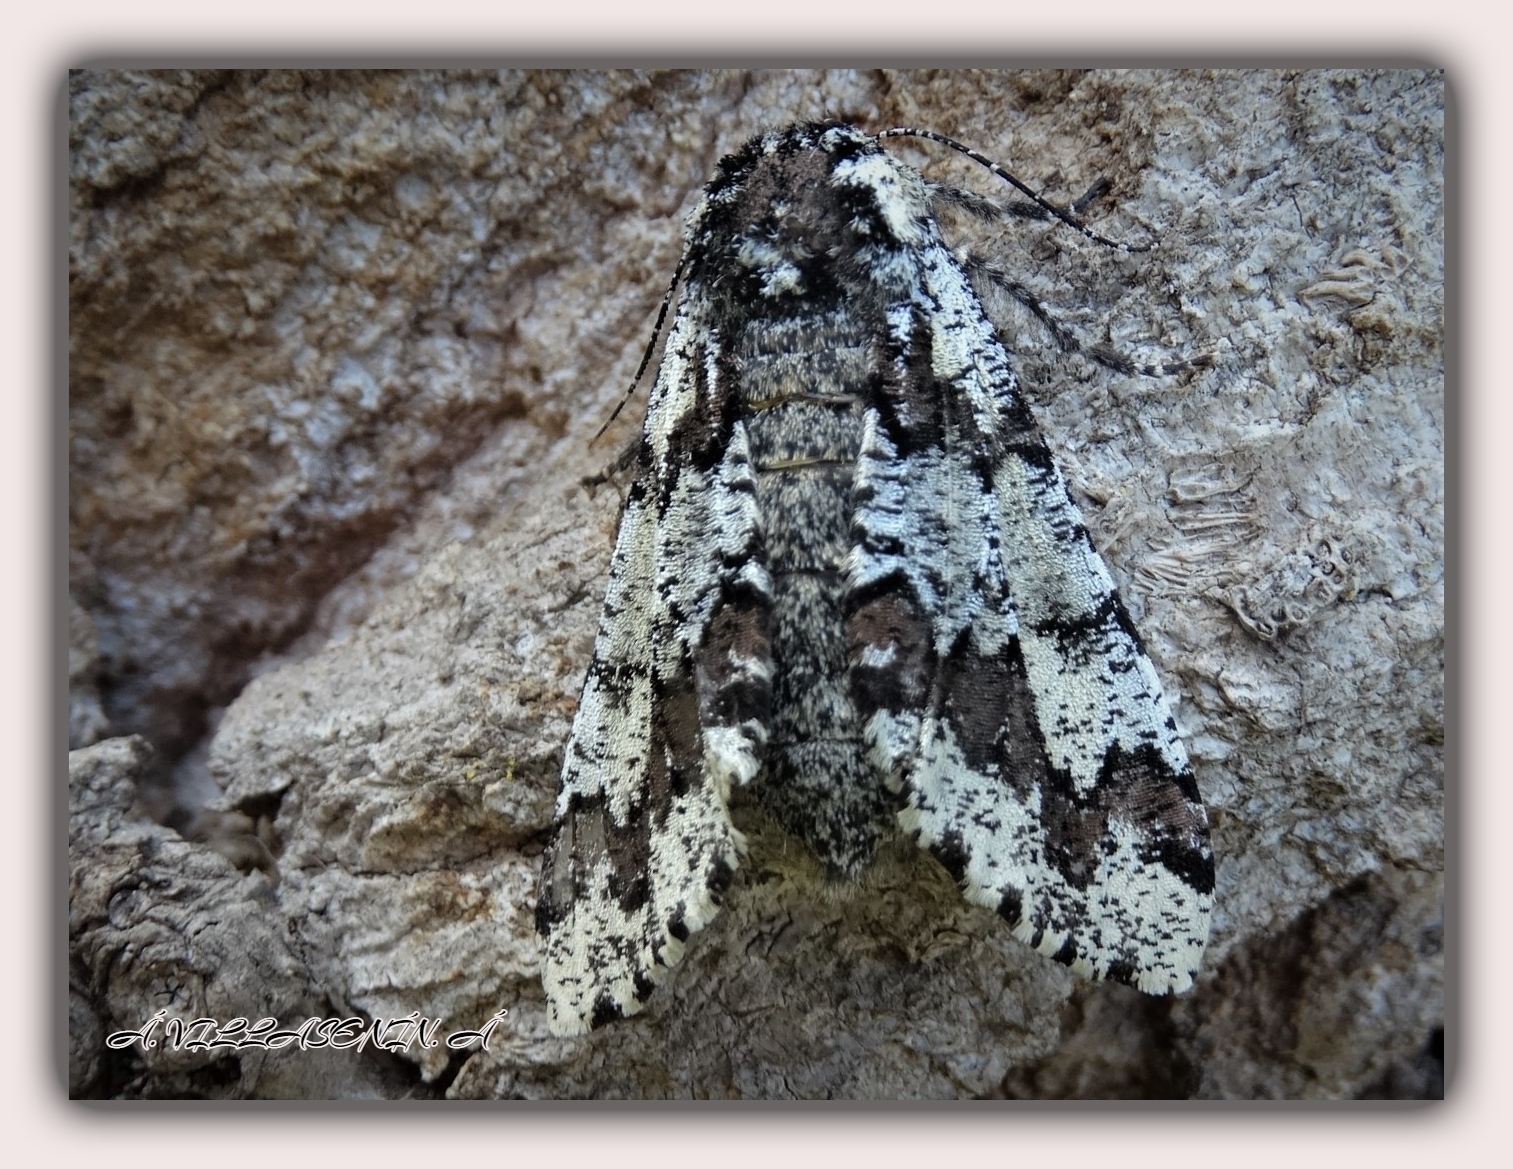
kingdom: Animalia
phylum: Arthropoda
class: Insecta
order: Lepidoptera
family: Geometridae
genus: Biston
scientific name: Biston strataria
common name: Oak beauty
